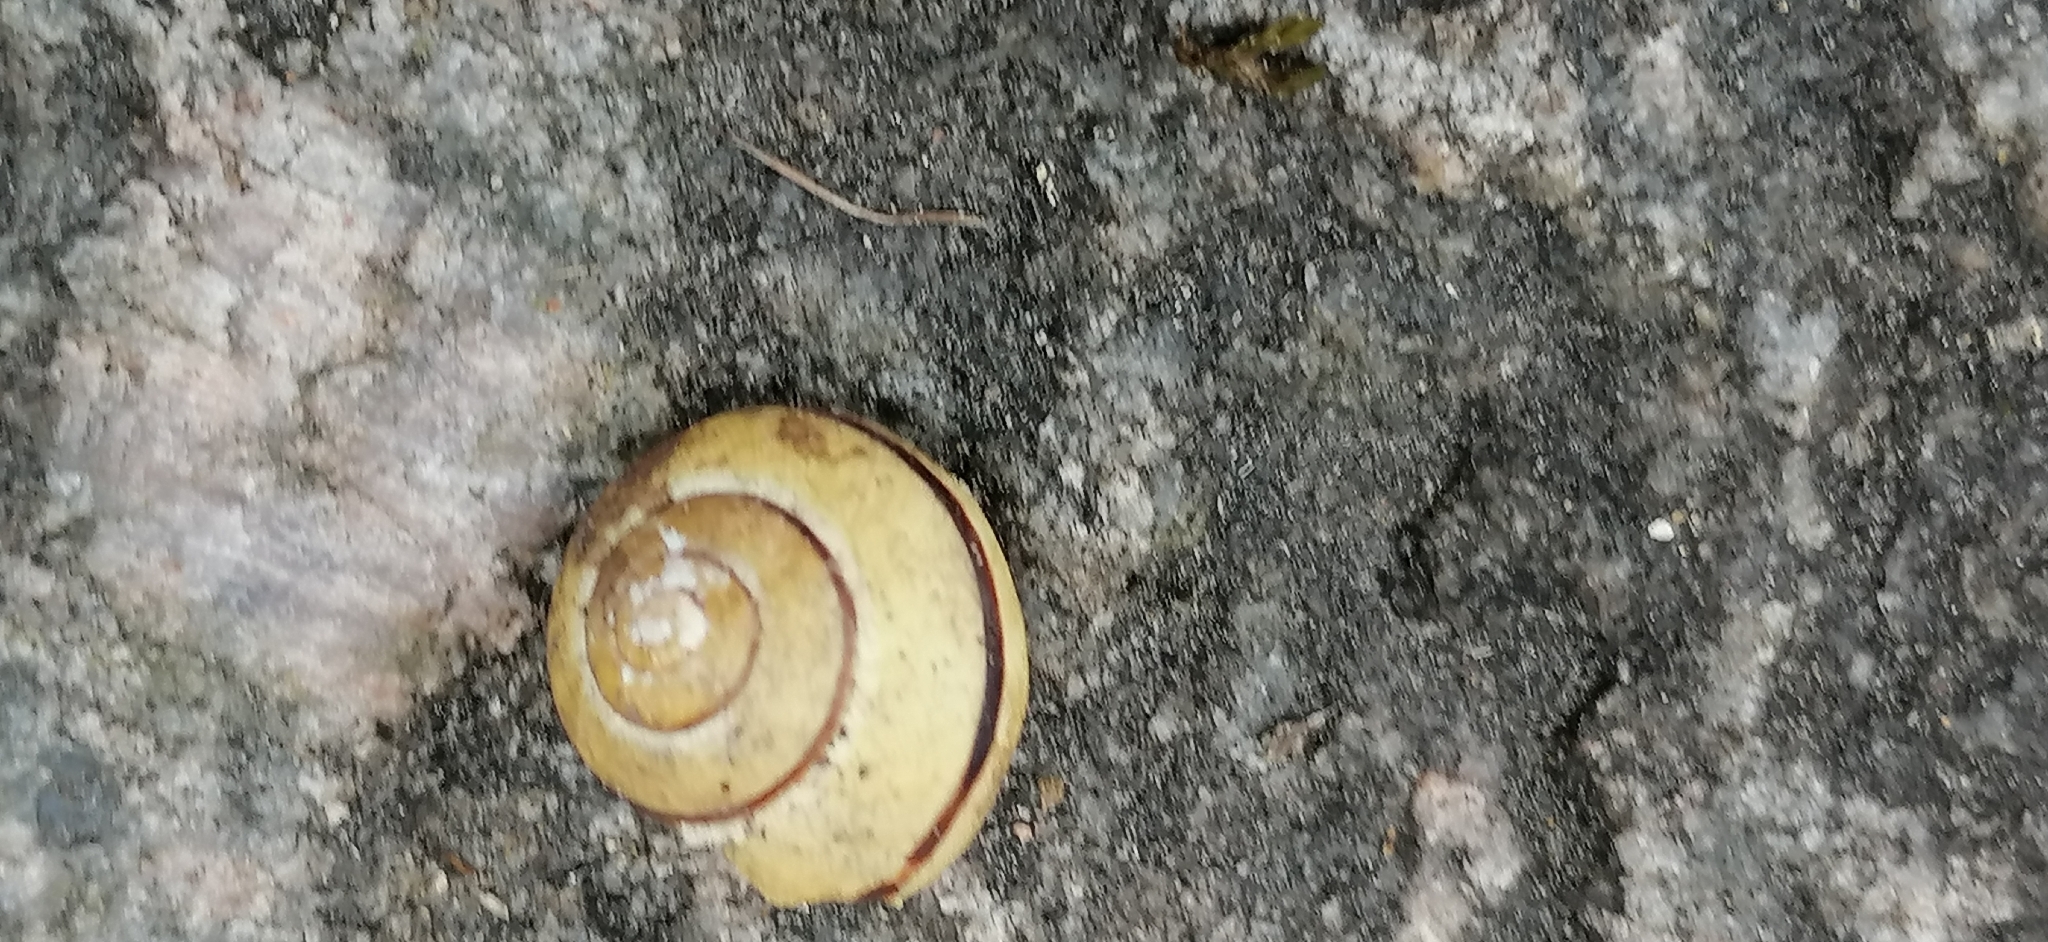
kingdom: Animalia
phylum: Mollusca
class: Gastropoda
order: Stylommatophora
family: Helicidae
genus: Cepaea
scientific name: Cepaea nemoralis
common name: Grovesnail
